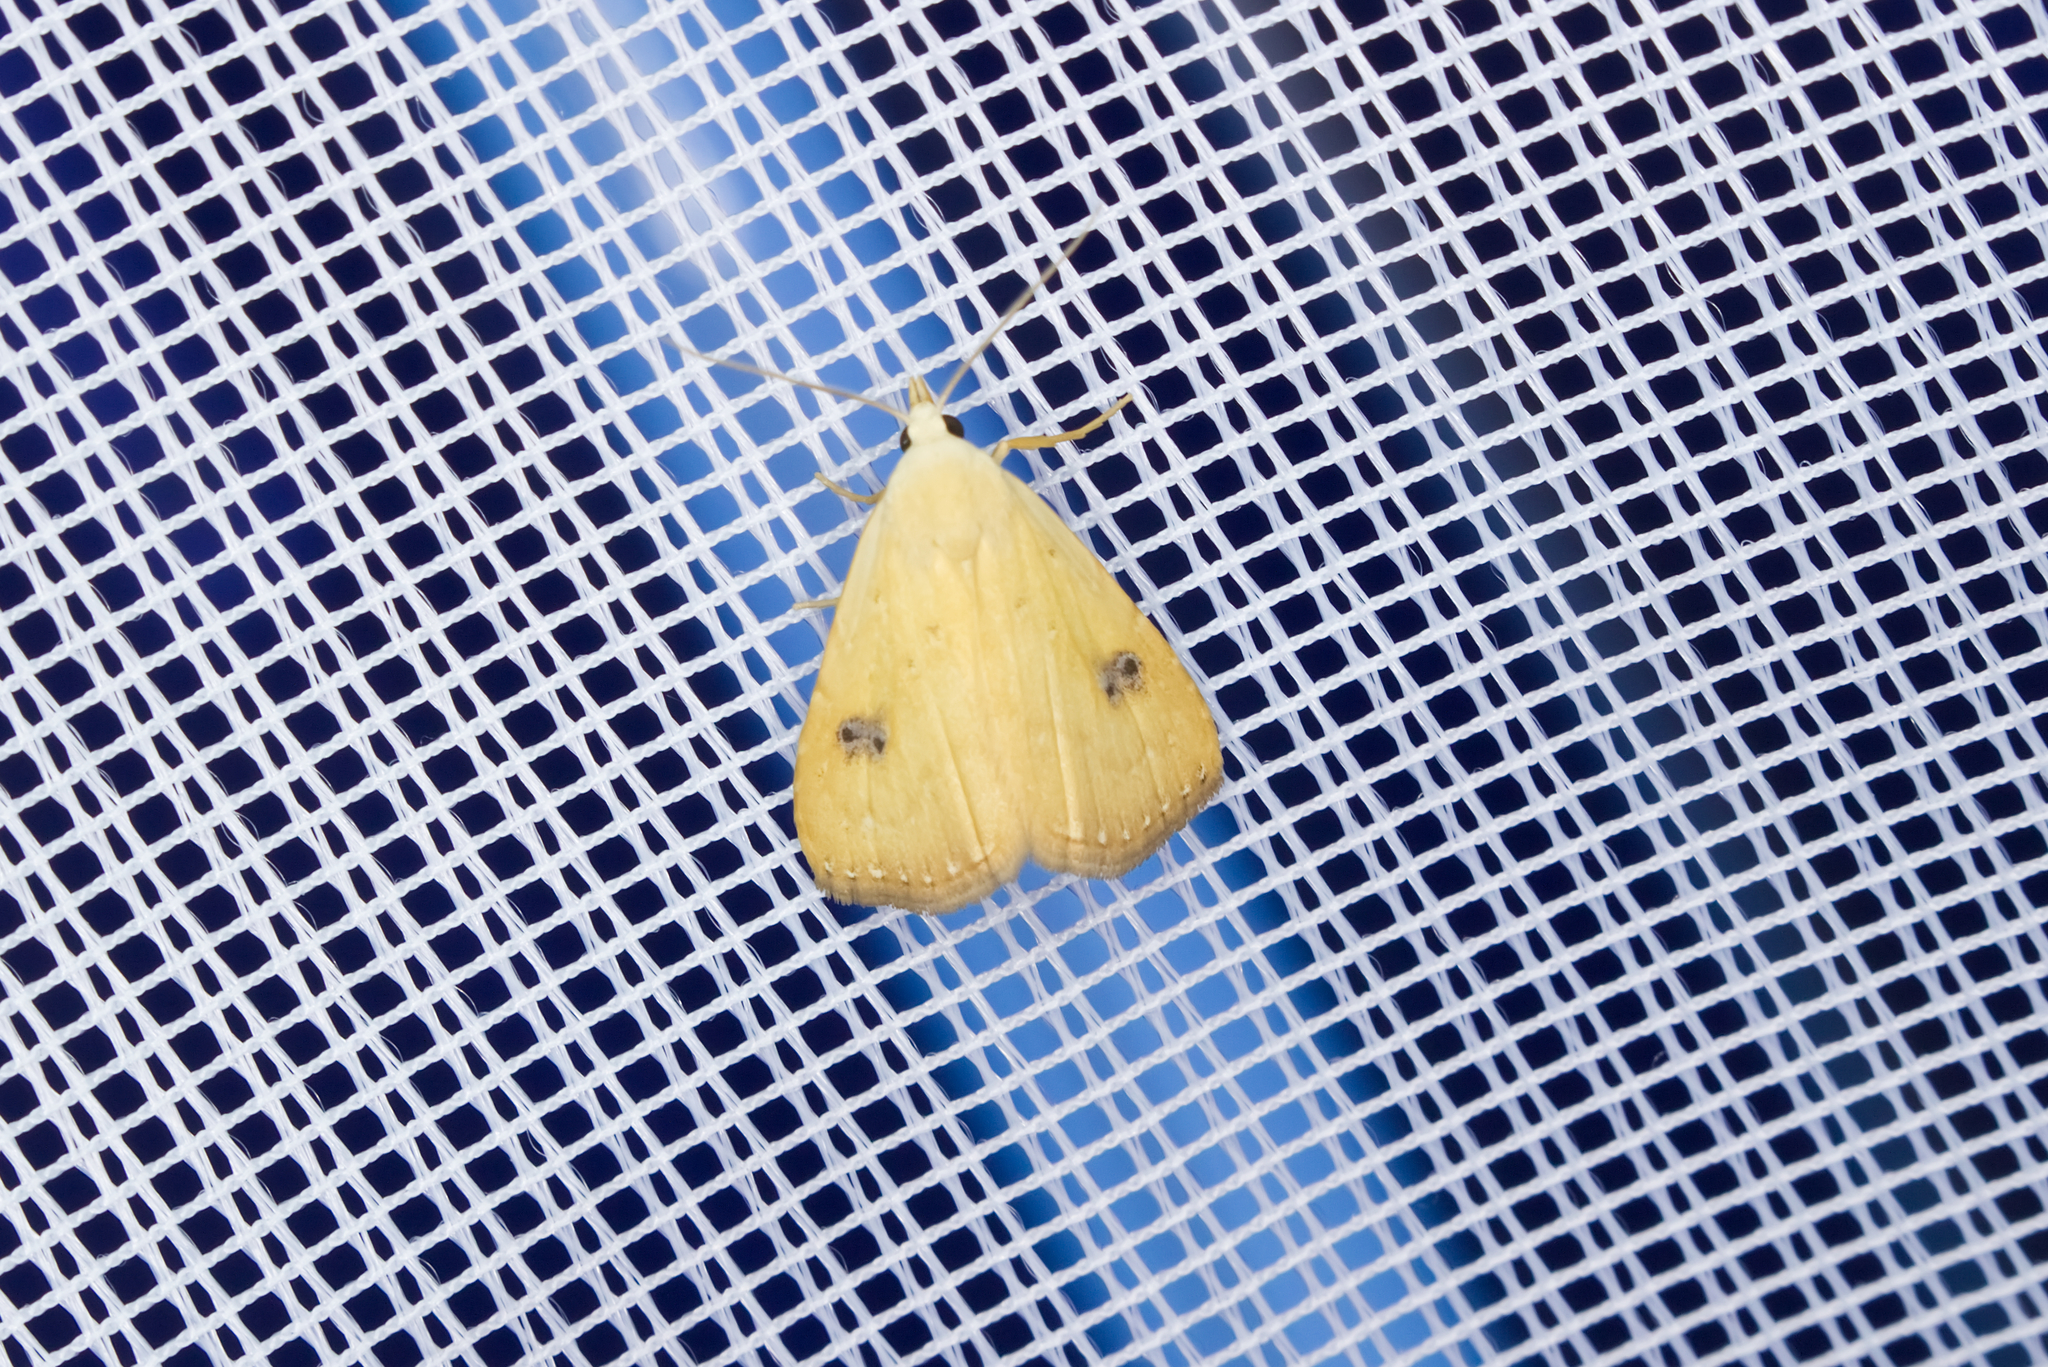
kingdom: Animalia
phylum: Arthropoda
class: Insecta
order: Lepidoptera
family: Erebidae
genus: Rivula
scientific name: Rivula sericealis
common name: Straw dot
